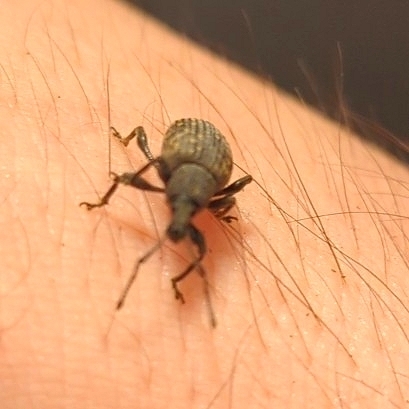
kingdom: Animalia
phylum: Arthropoda
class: Insecta
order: Coleoptera
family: Curculionidae
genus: Otiorhynchus
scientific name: Otiorhynchus sulcatus
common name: Black vine weevil
